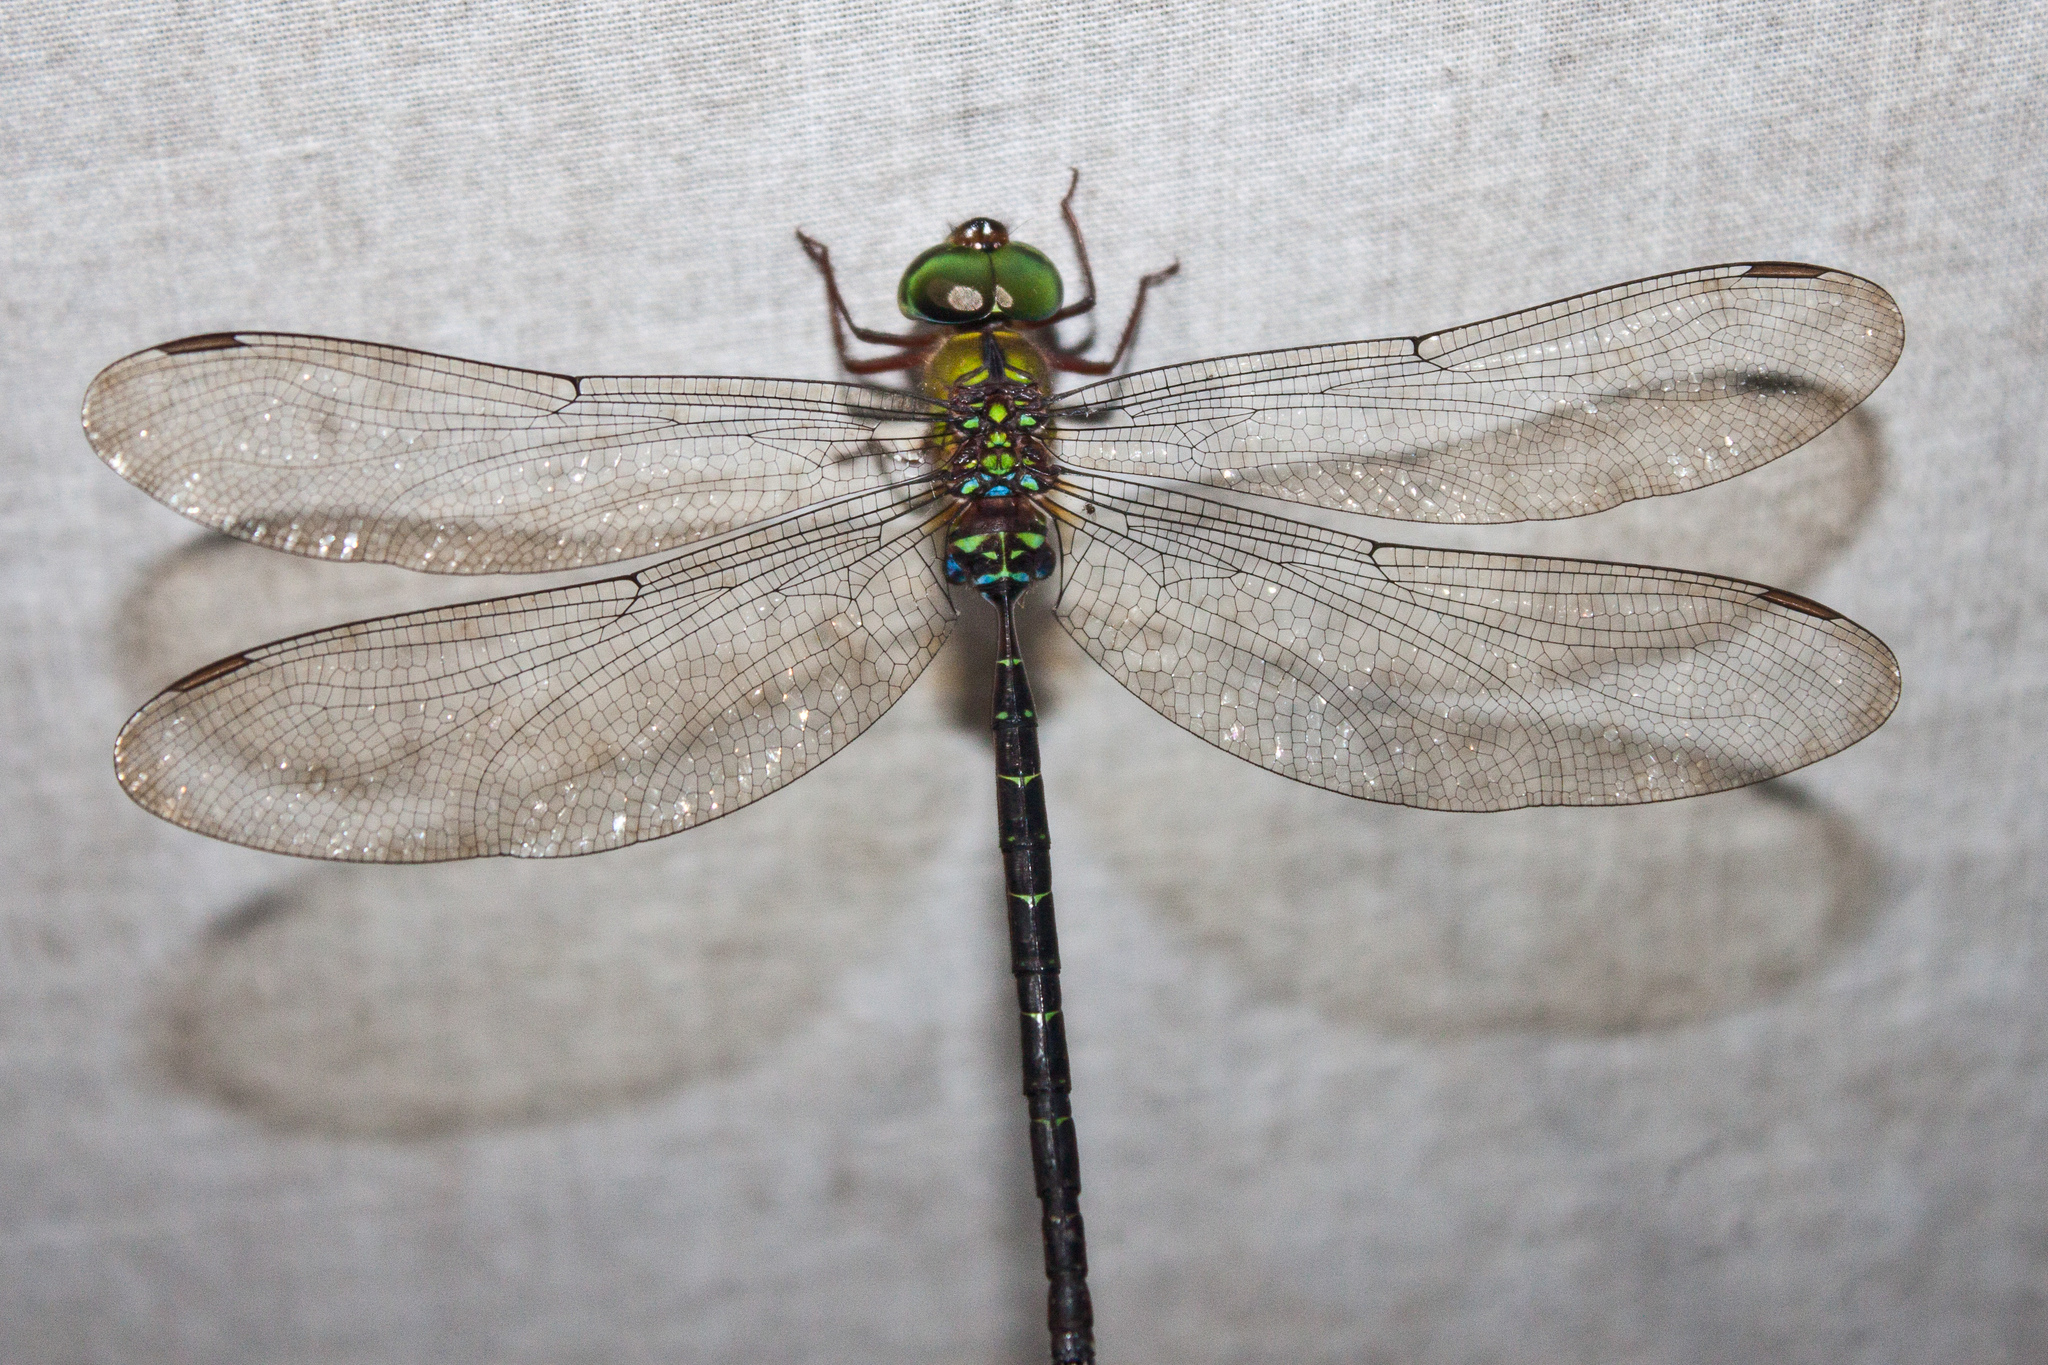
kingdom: Animalia
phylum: Arthropoda
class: Insecta
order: Odonata
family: Aeshnidae
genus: Gynacantha
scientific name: Gynacantha demeter
